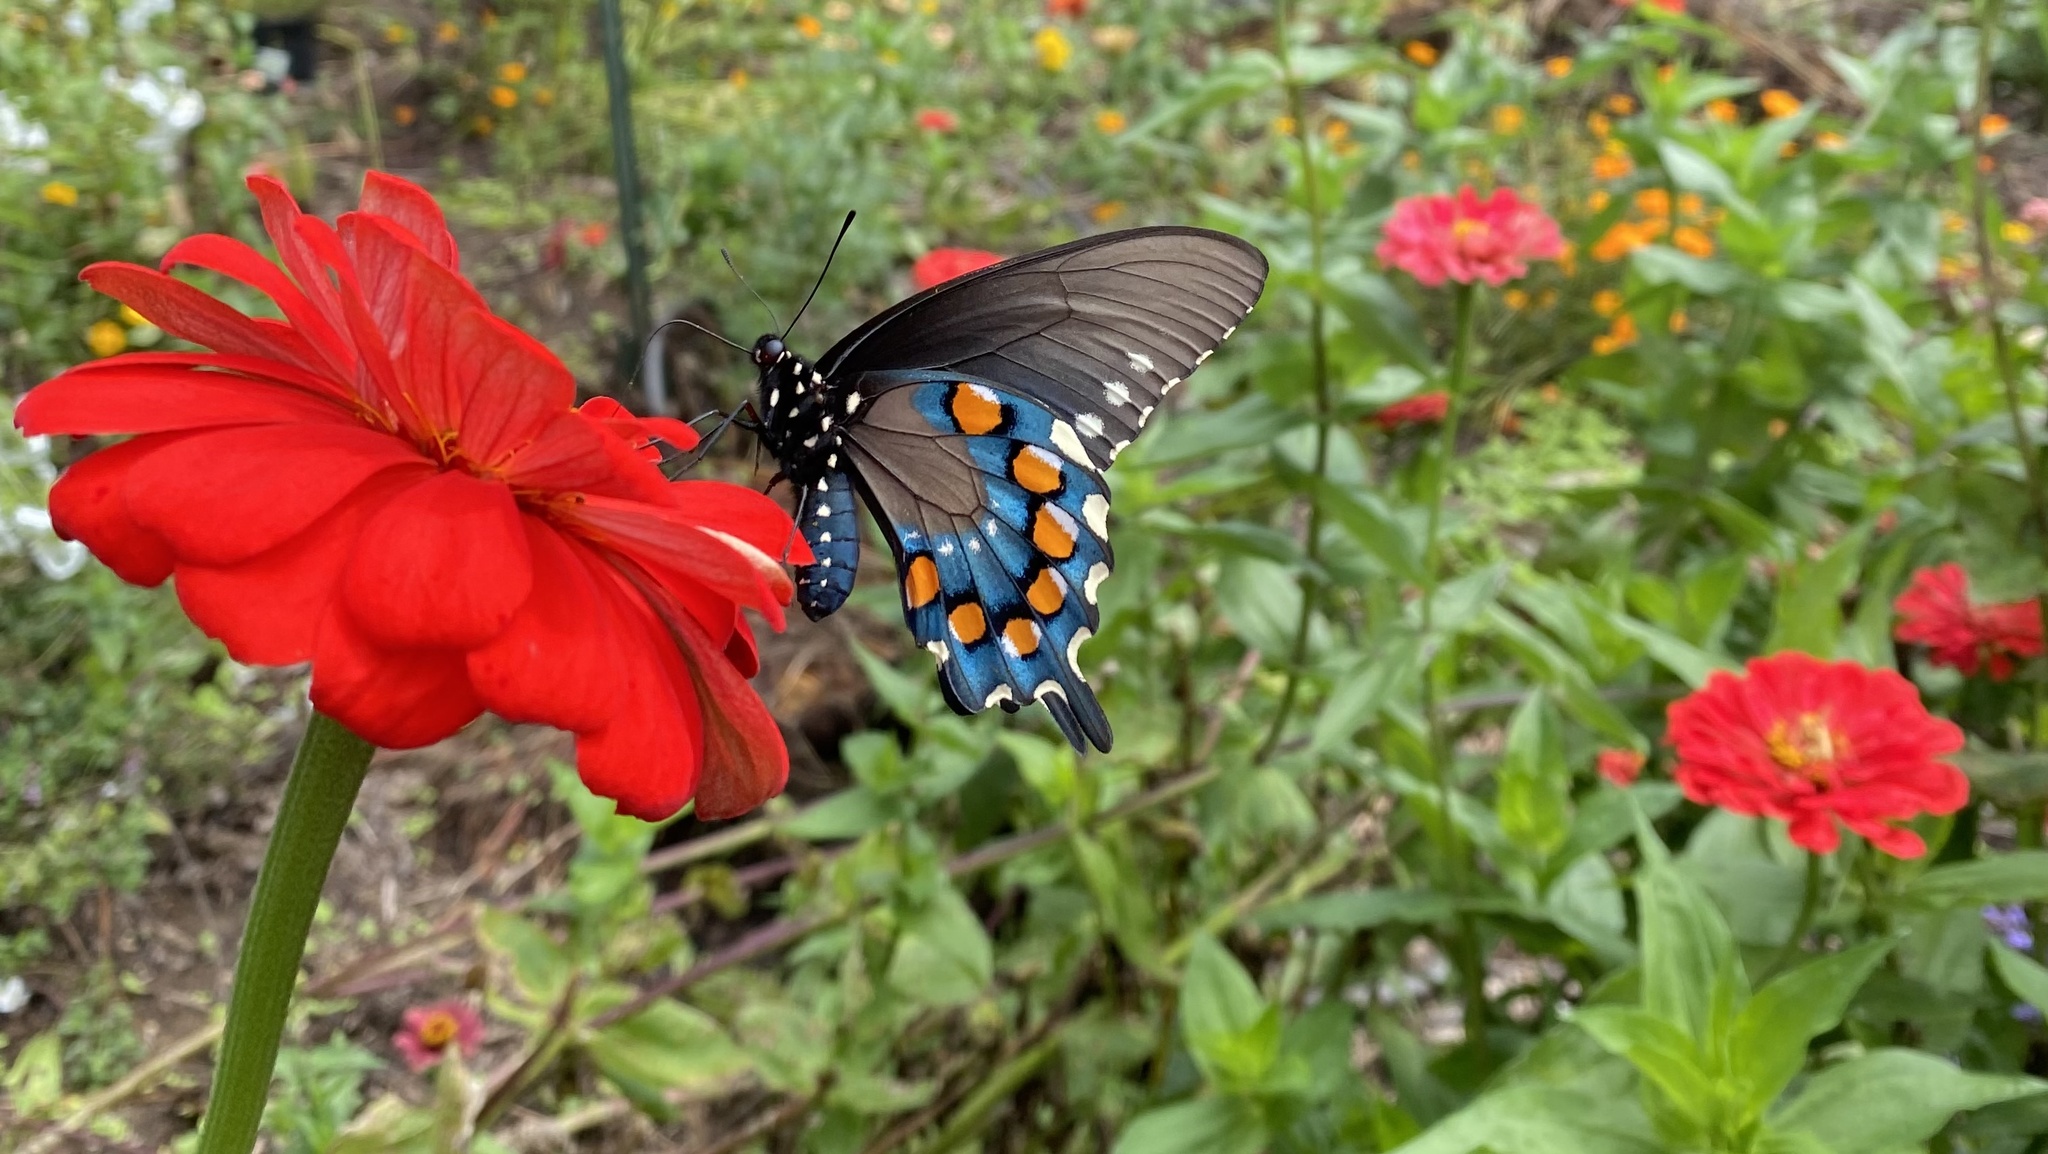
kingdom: Animalia
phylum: Arthropoda
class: Insecta
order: Lepidoptera
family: Papilionidae
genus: Battus
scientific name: Battus philenor
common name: Pipevine swallowtail
